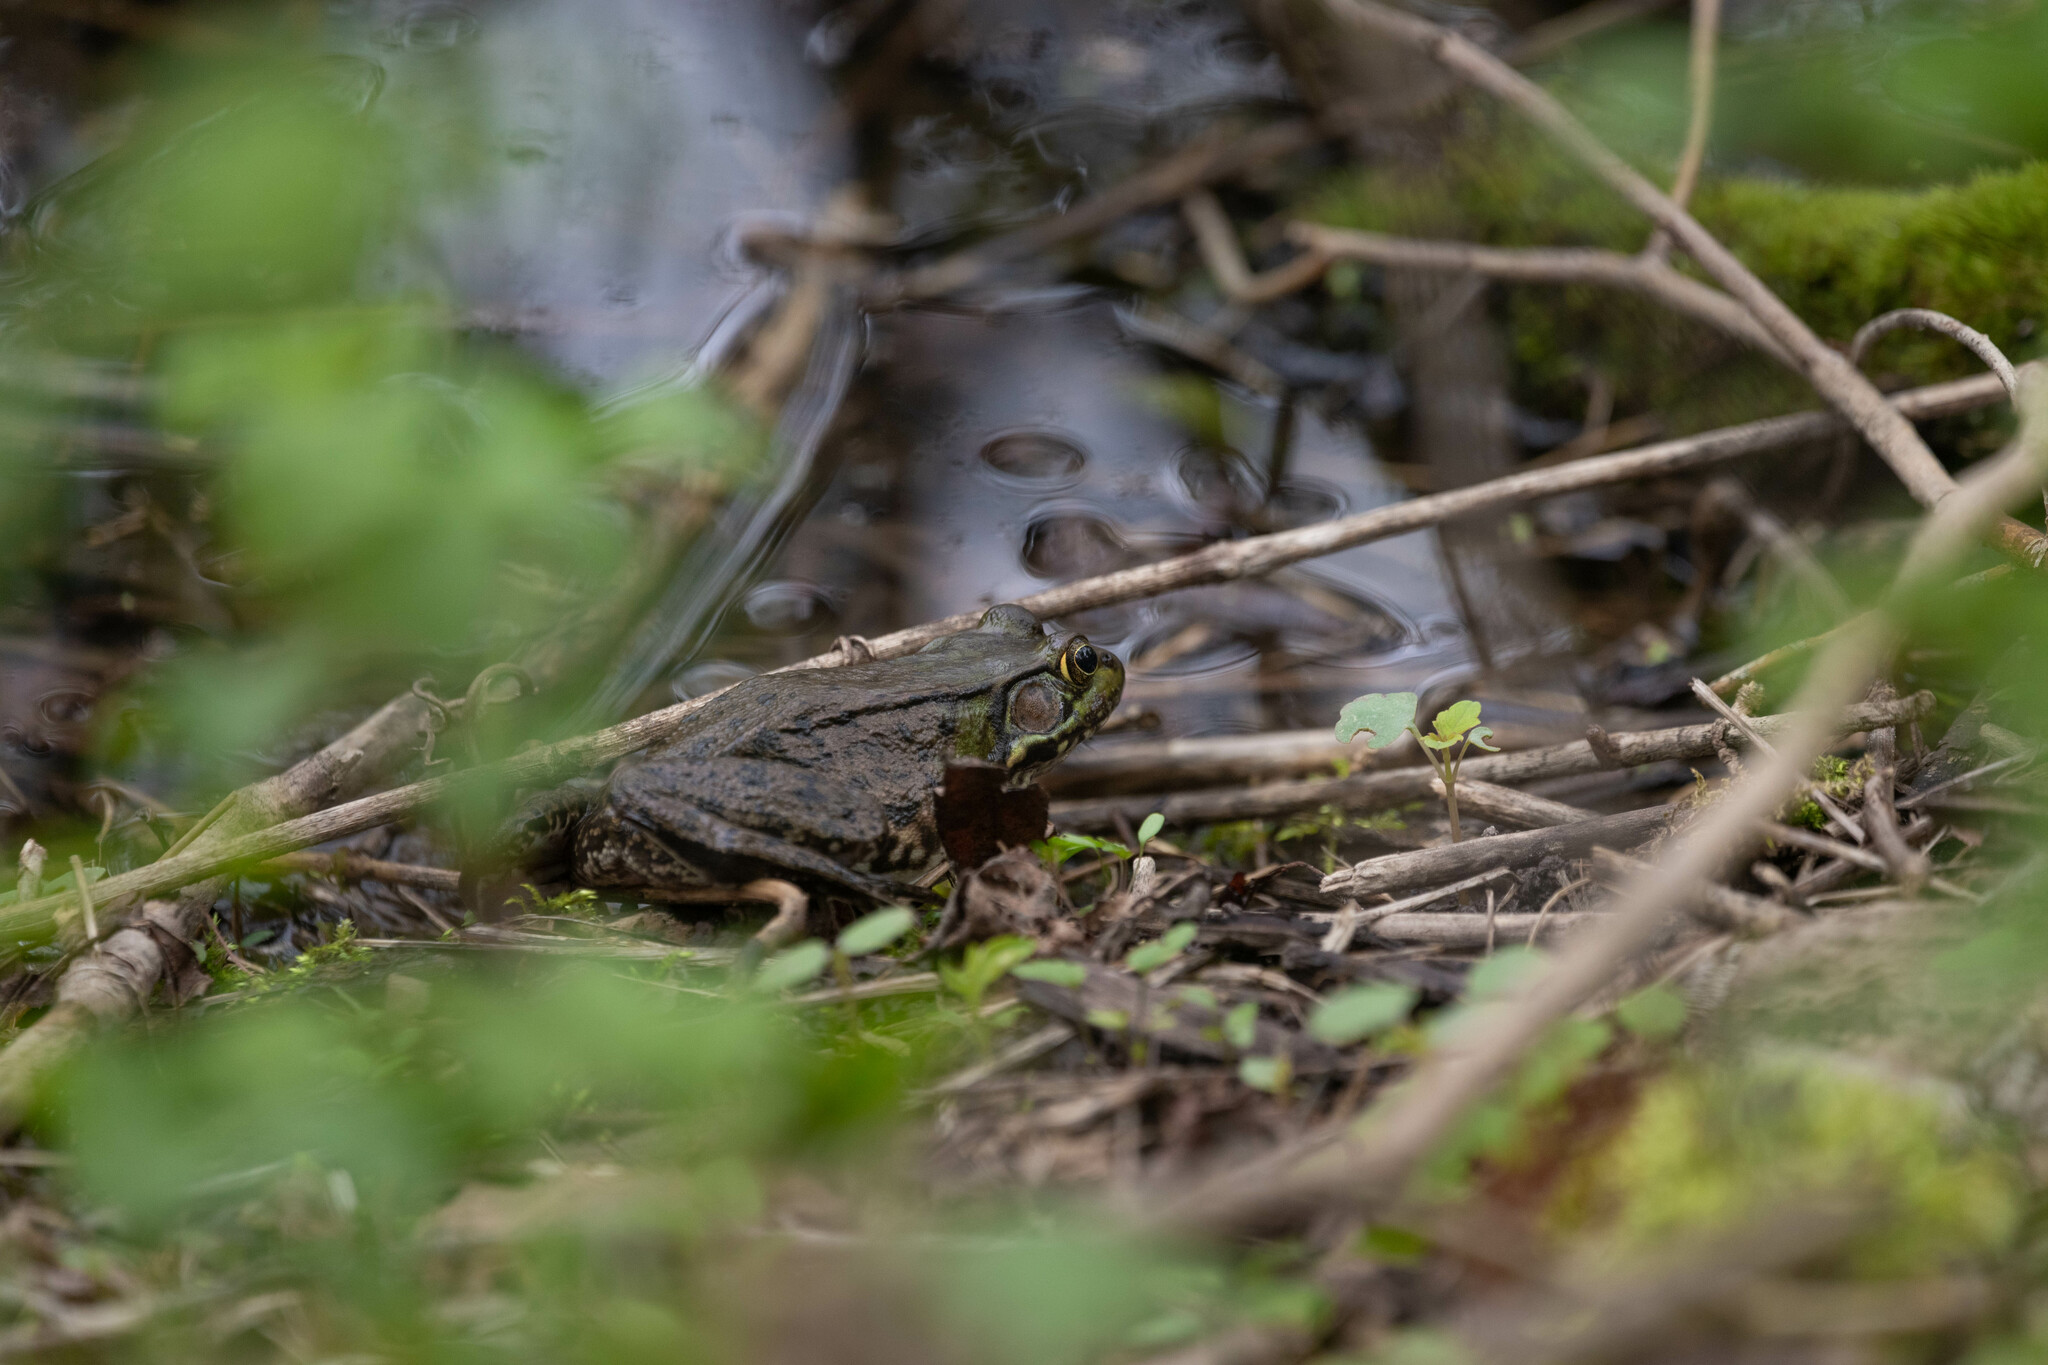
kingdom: Animalia
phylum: Chordata
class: Amphibia
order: Anura
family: Ranidae
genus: Lithobates
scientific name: Lithobates clamitans
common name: Green frog
